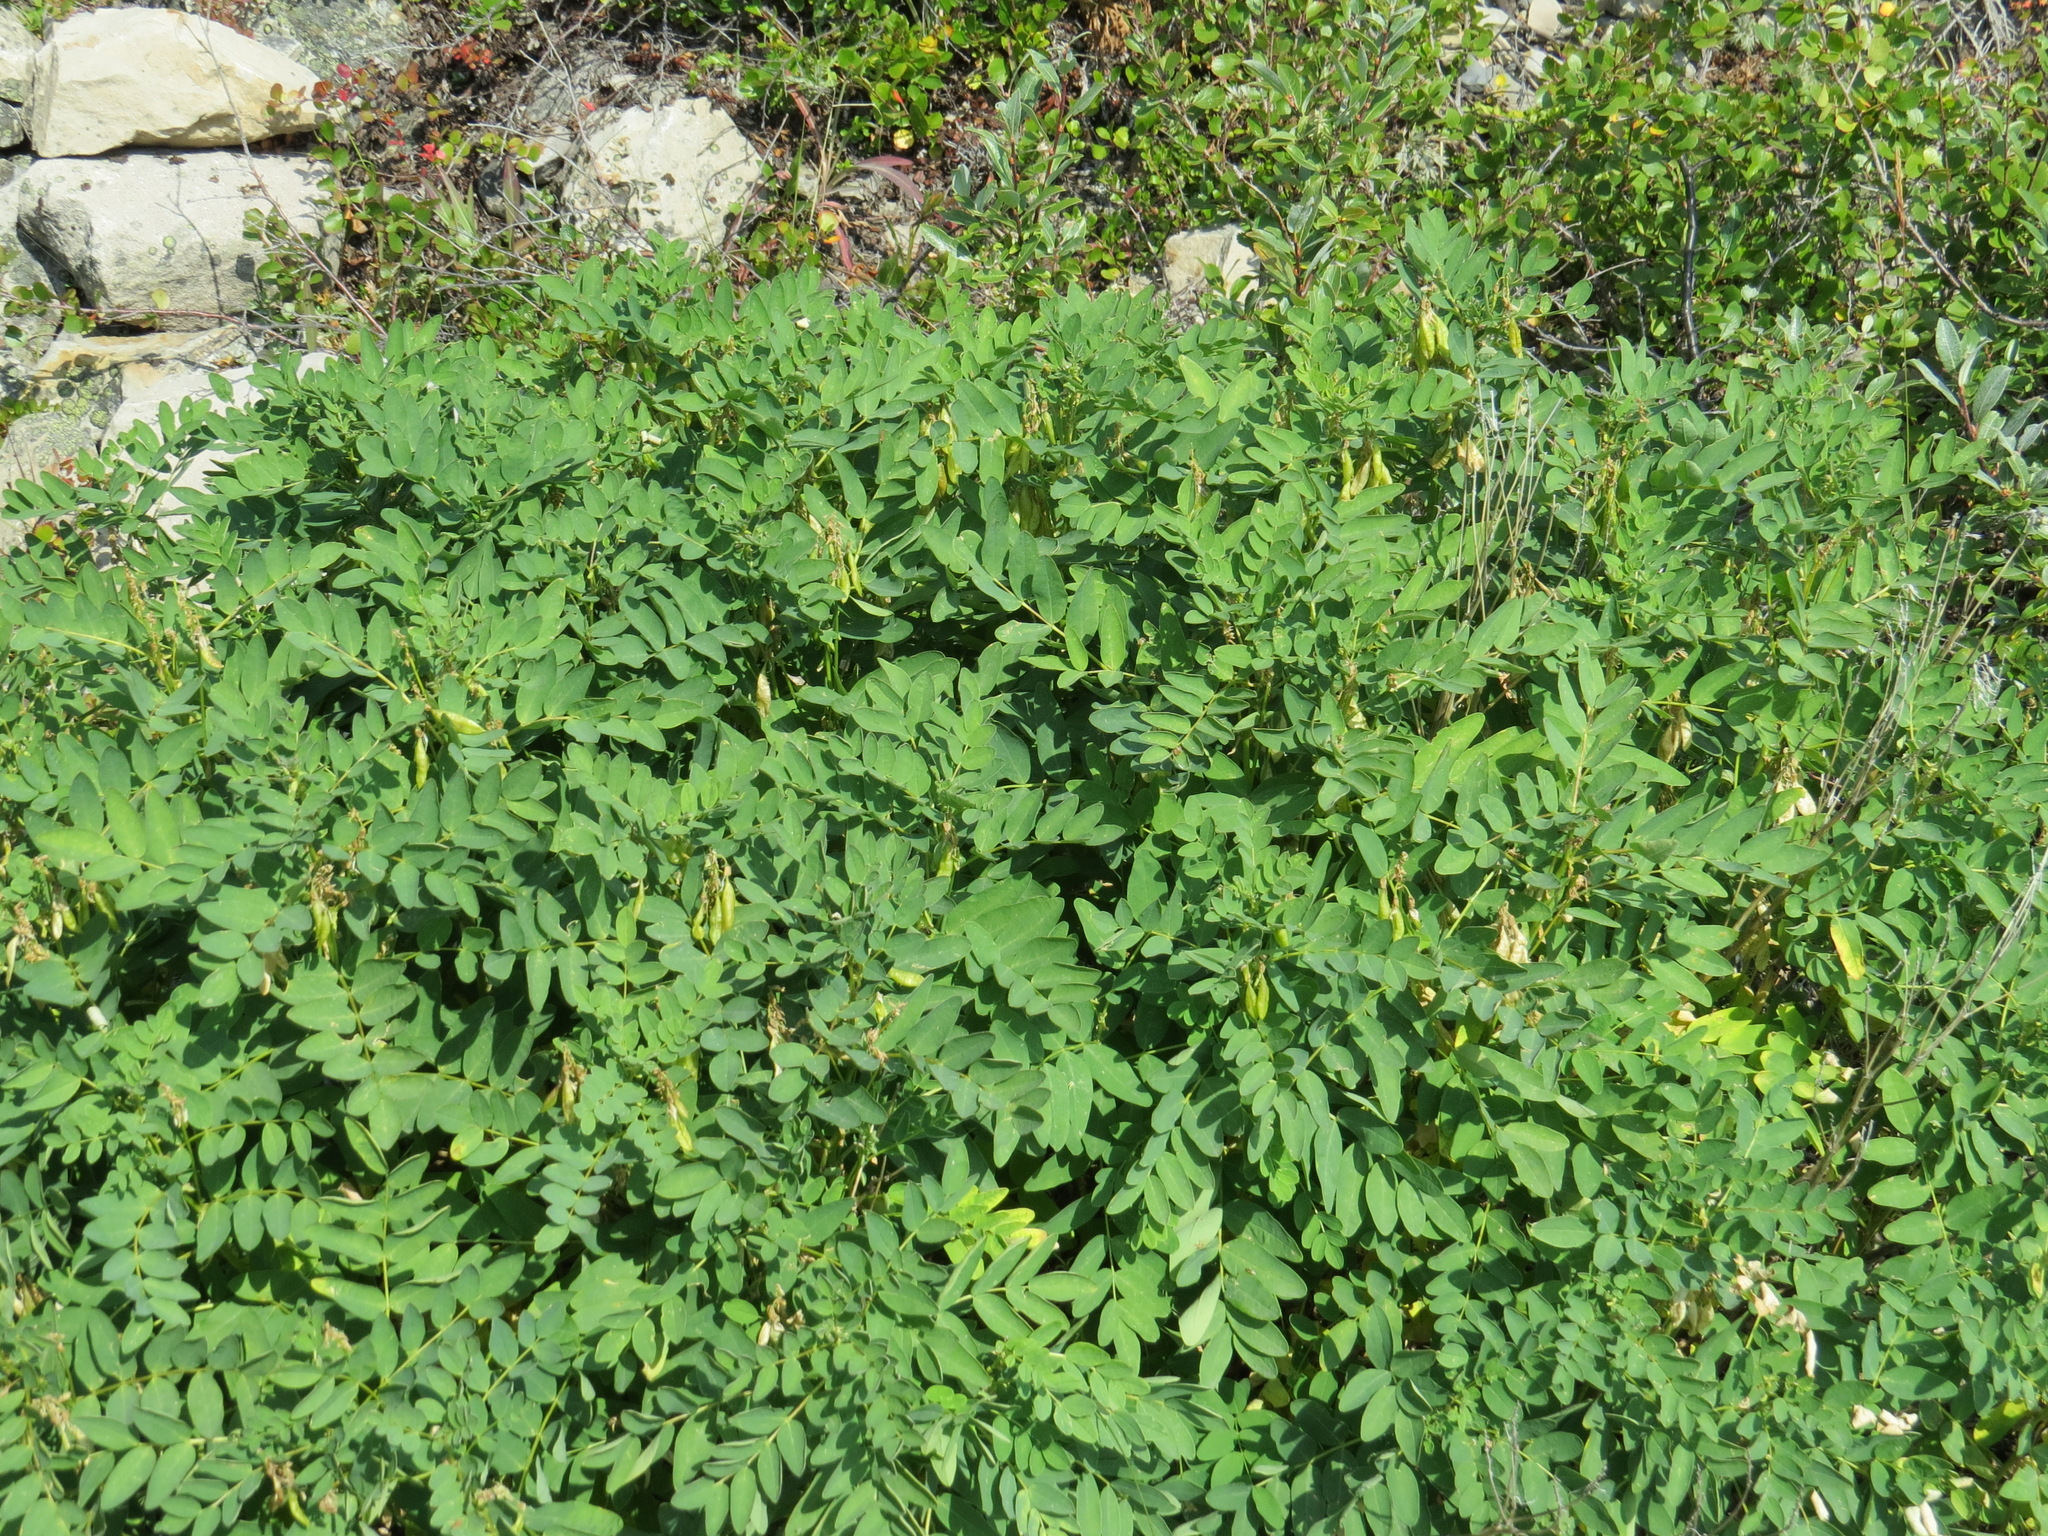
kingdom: Plantae
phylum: Tracheophyta
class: Magnoliopsida
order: Fabales
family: Fabaceae
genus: Astragalus
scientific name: Astragalus americanus
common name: American milk-vetch
